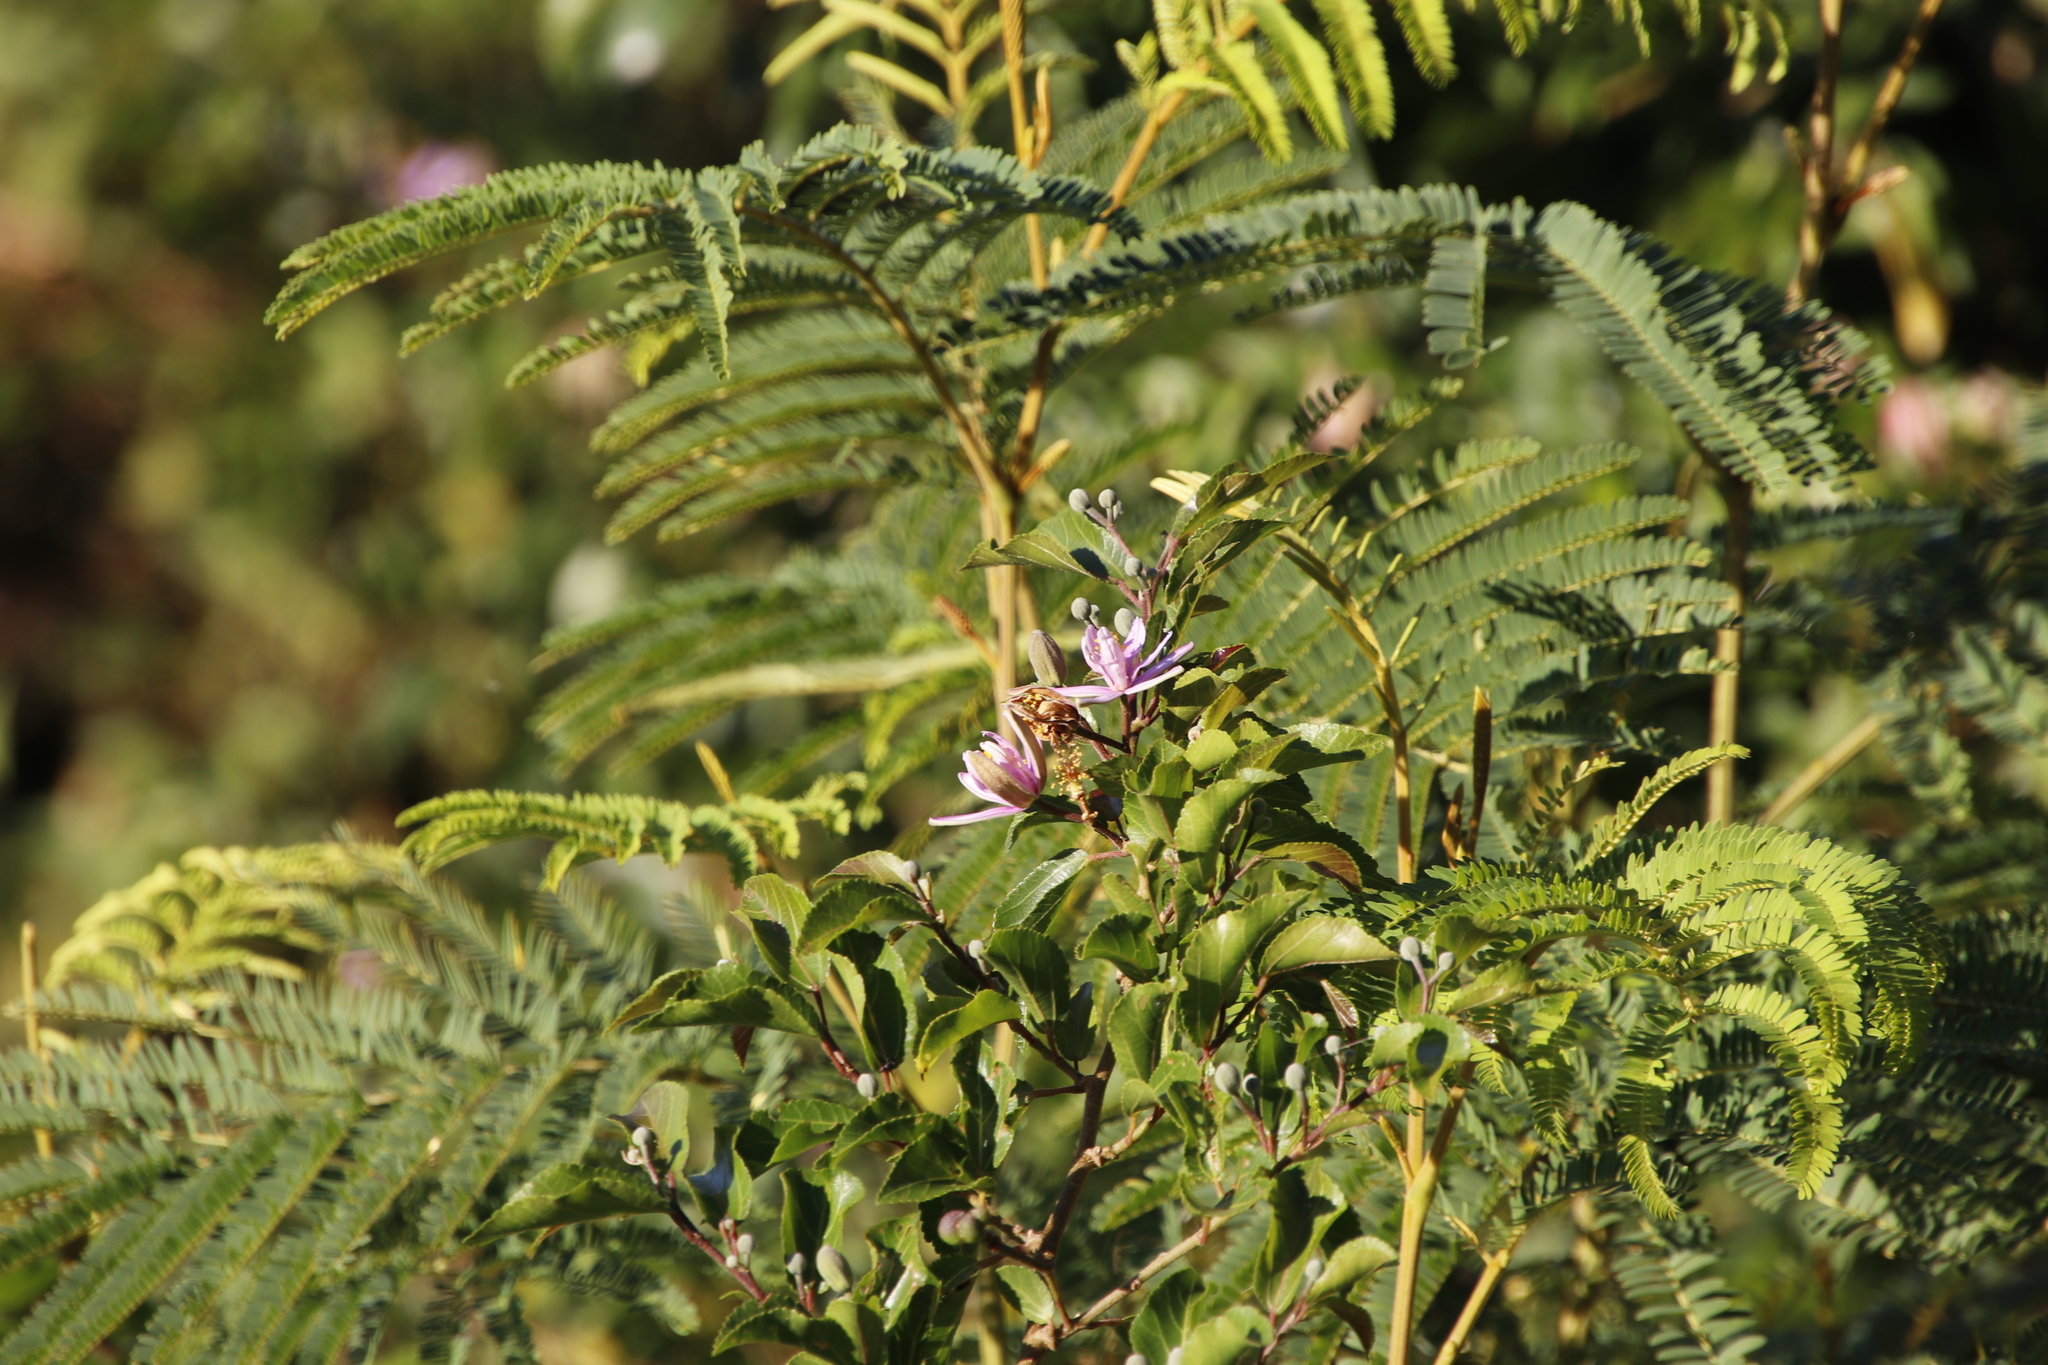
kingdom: Plantae
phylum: Tracheophyta
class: Magnoliopsida
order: Malvales
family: Malvaceae
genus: Grewia
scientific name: Grewia occidentalis
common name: Crossberry
